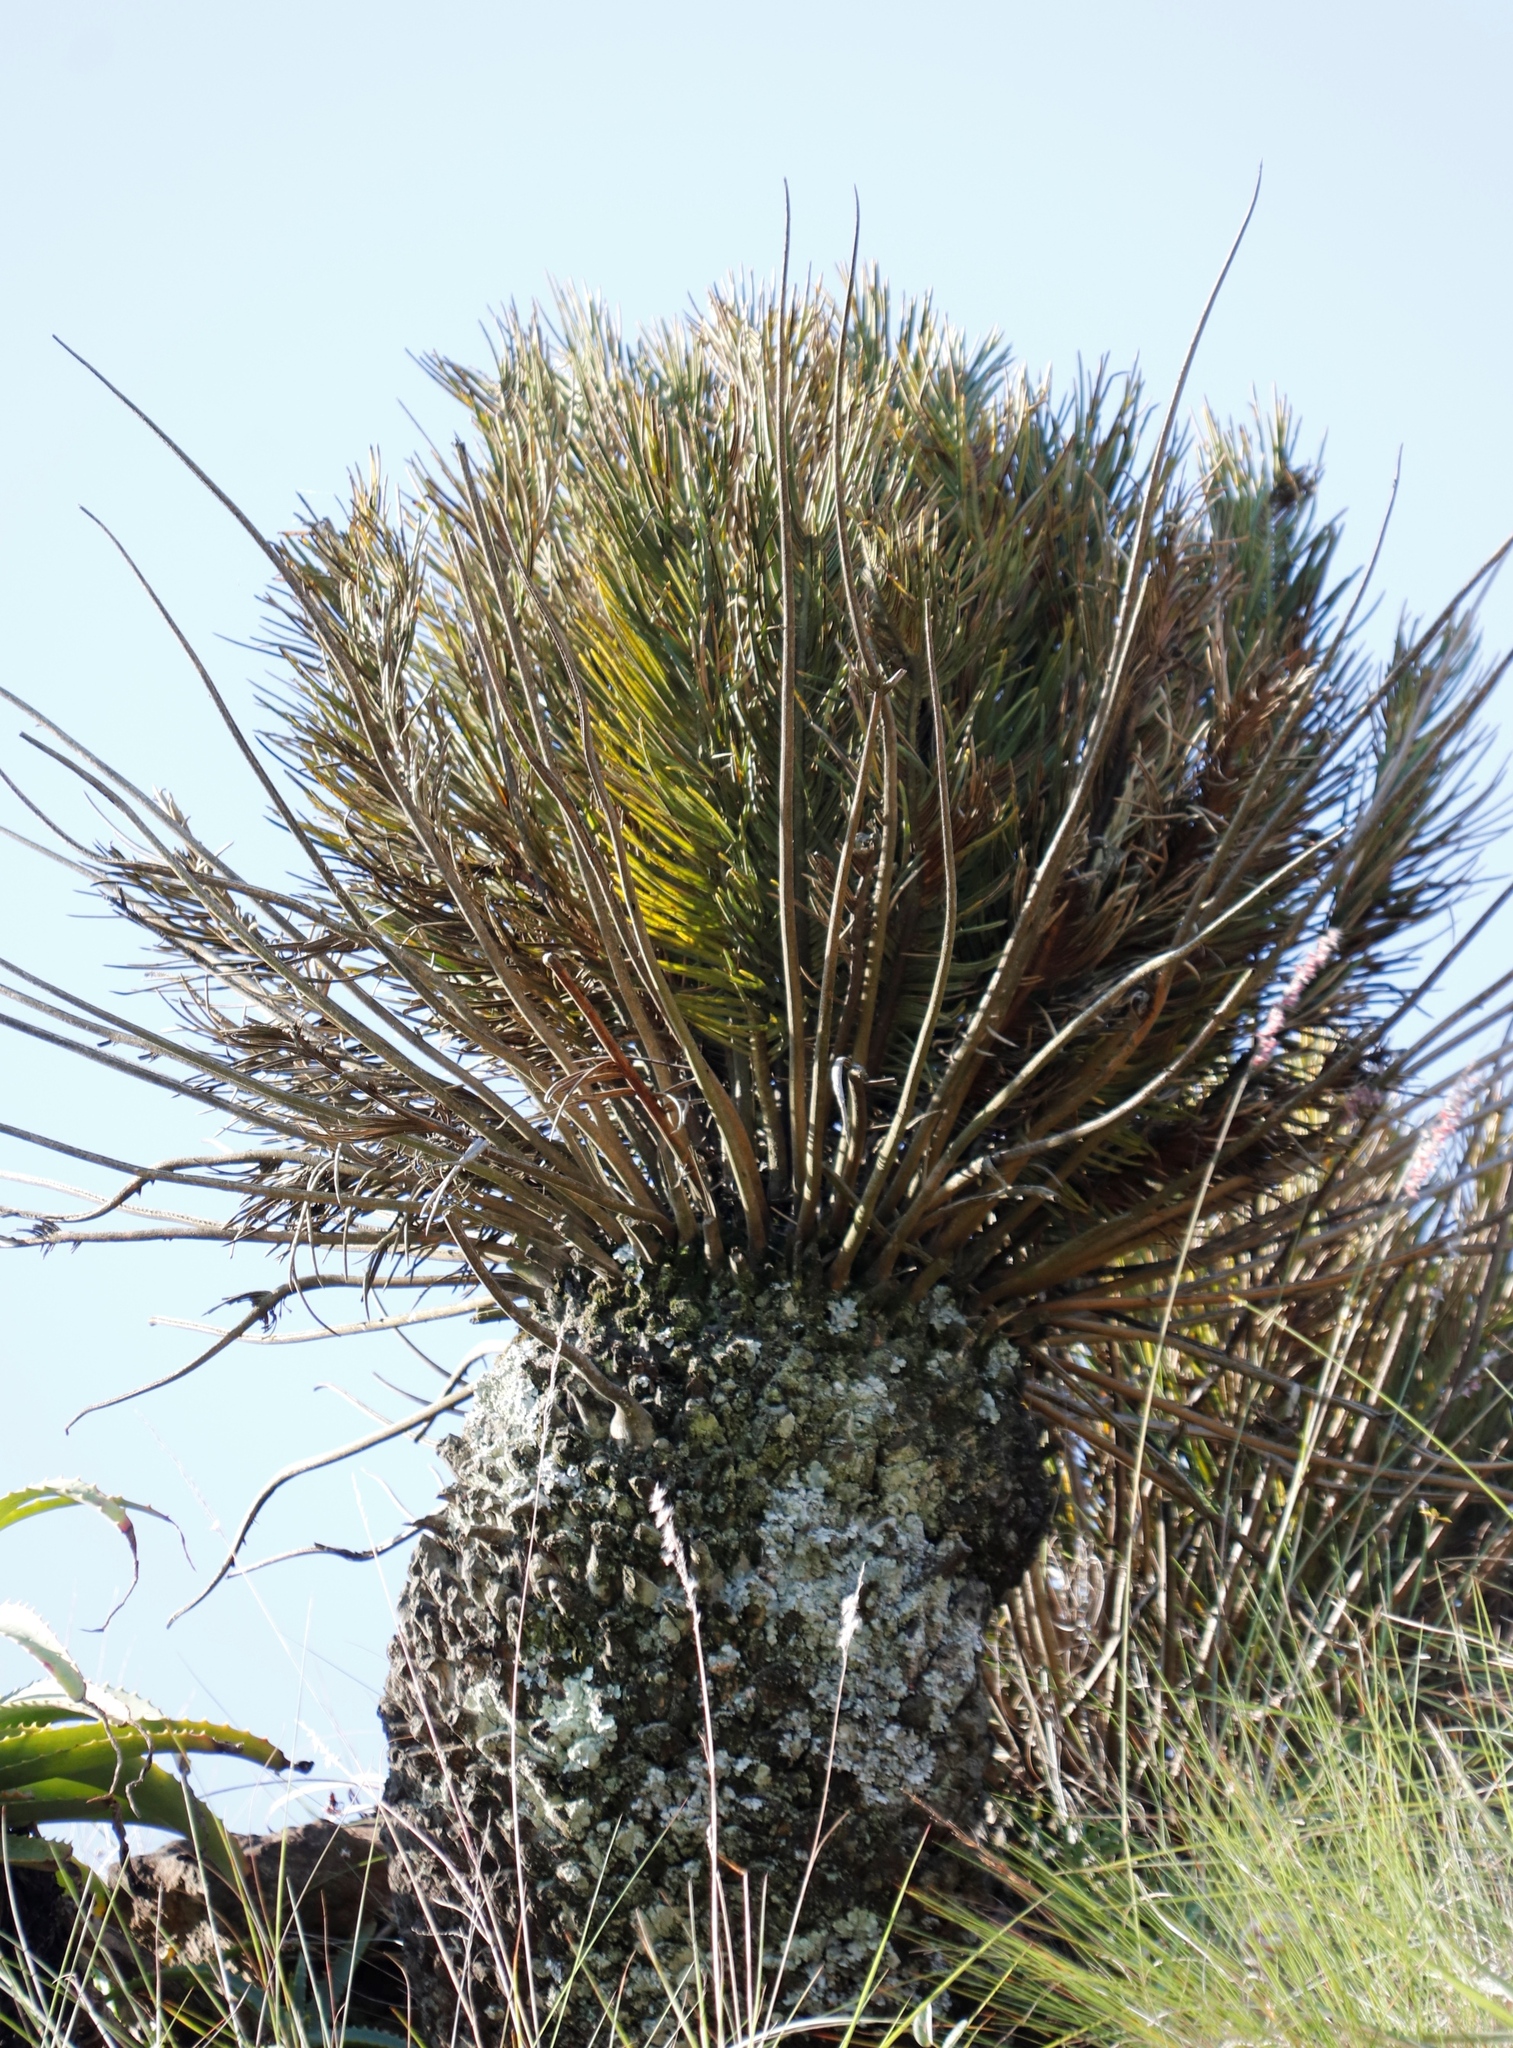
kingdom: Plantae
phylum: Tracheophyta
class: Cycadopsida
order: Cycadales
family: Zamiaceae
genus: Encephalartos
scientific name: Encephalartos ghellinckii
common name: Drakensberg cycad
